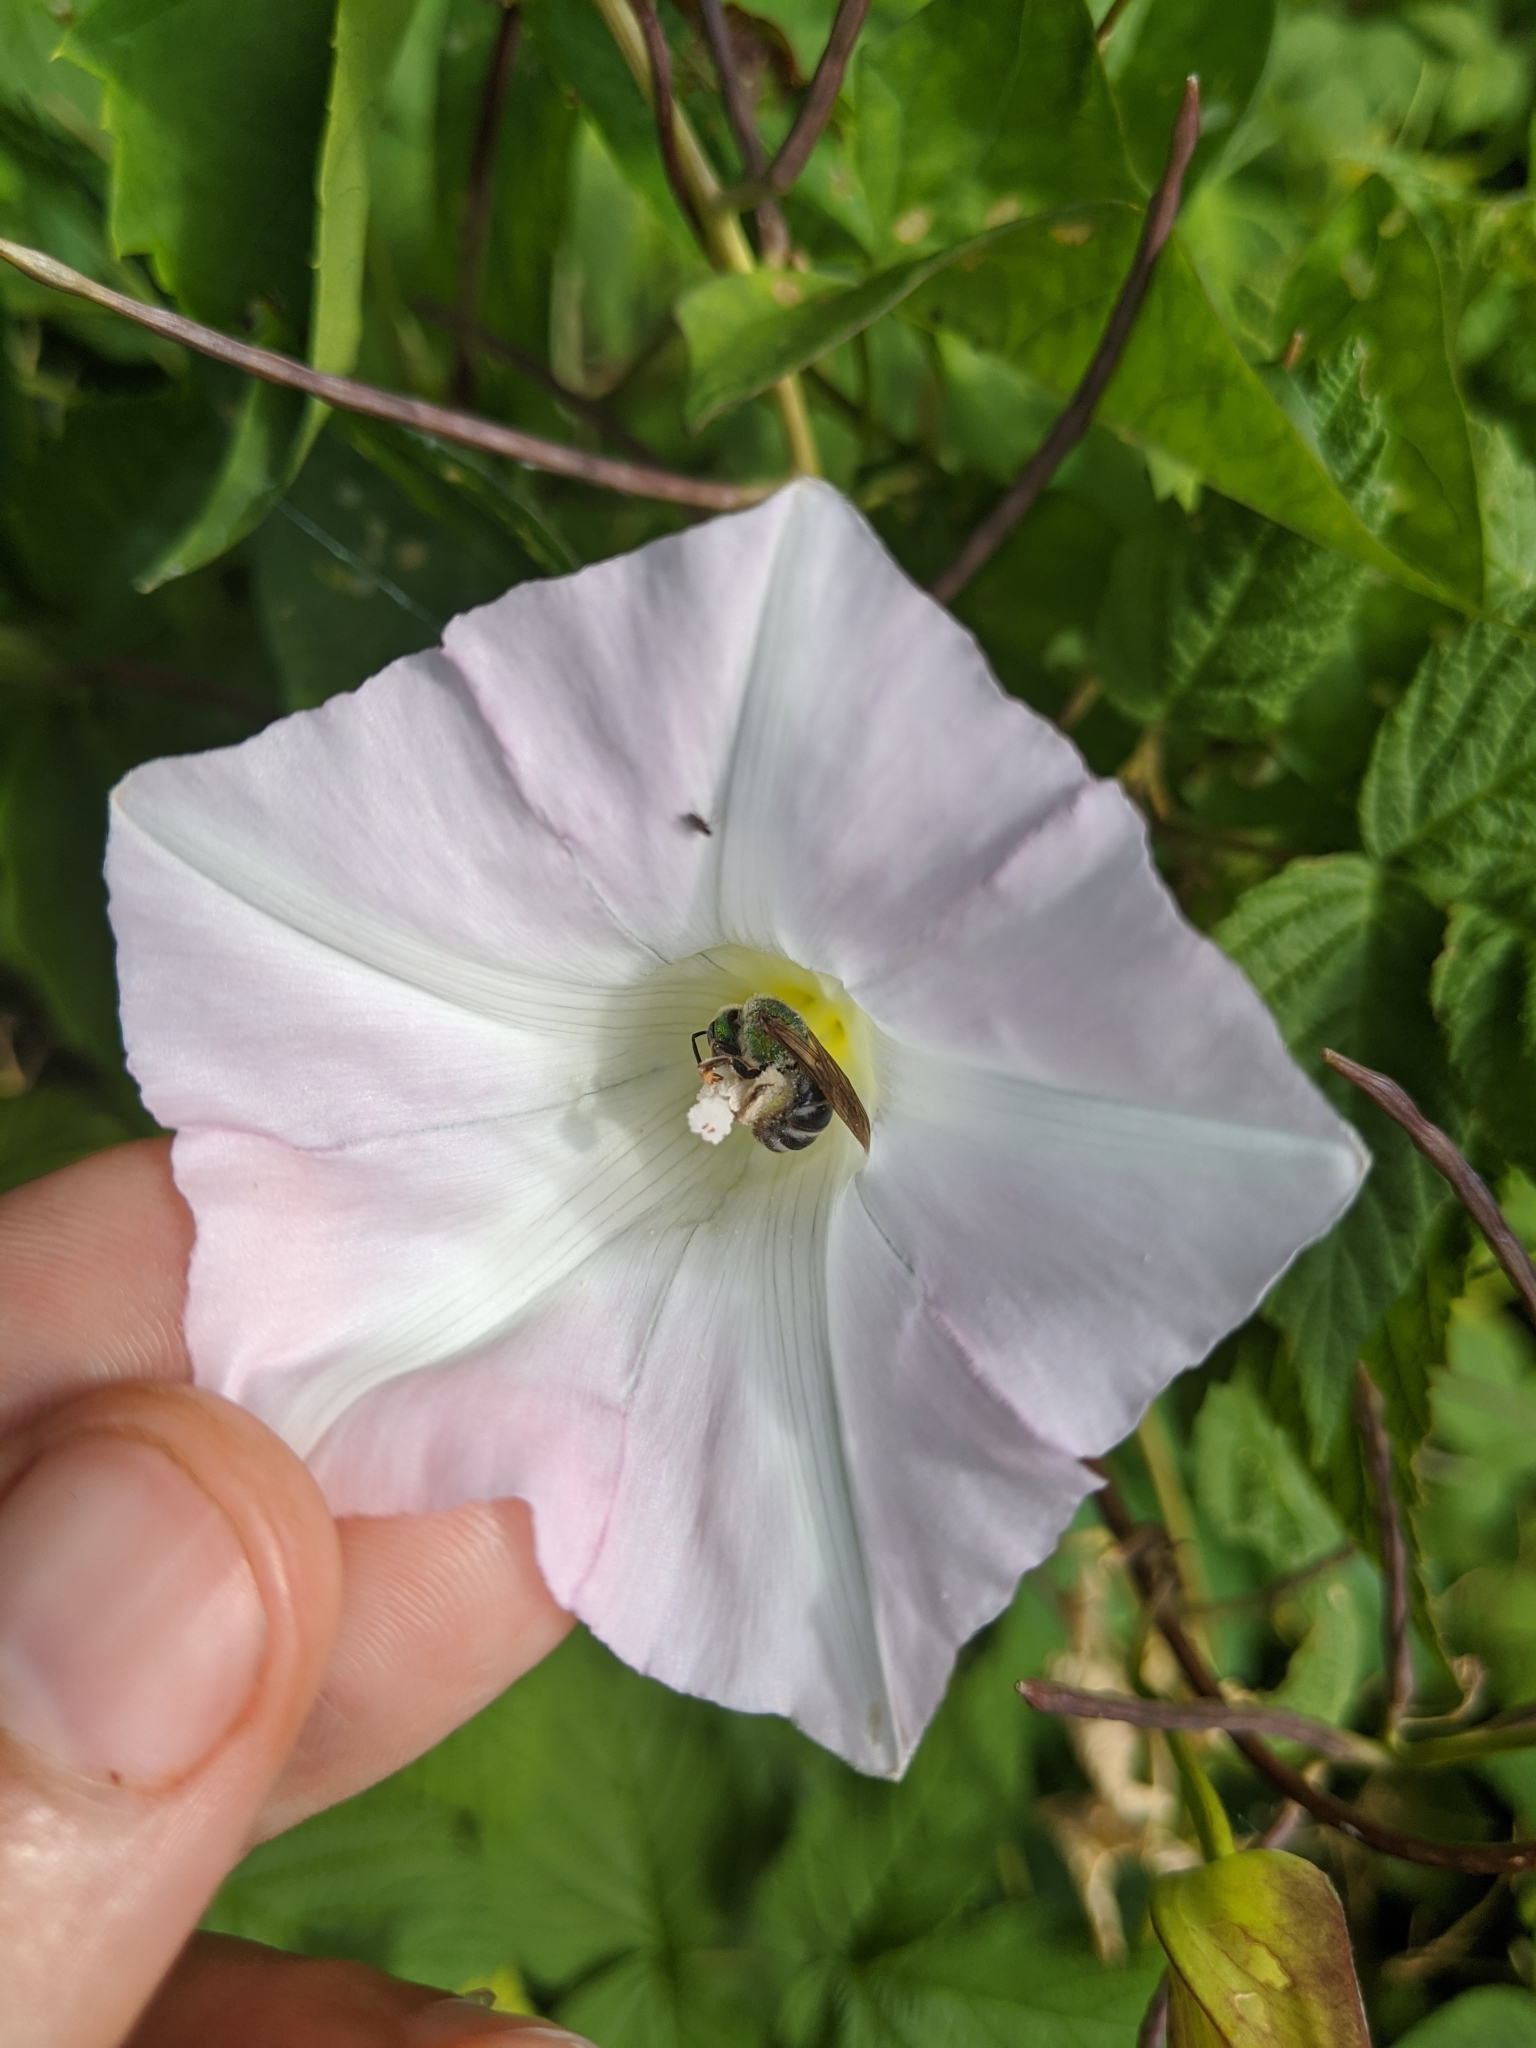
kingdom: Animalia
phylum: Arthropoda
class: Insecta
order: Hymenoptera
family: Halictidae
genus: Agapostemon
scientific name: Agapostemon virescens
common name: Bicolored striped sweat bee
